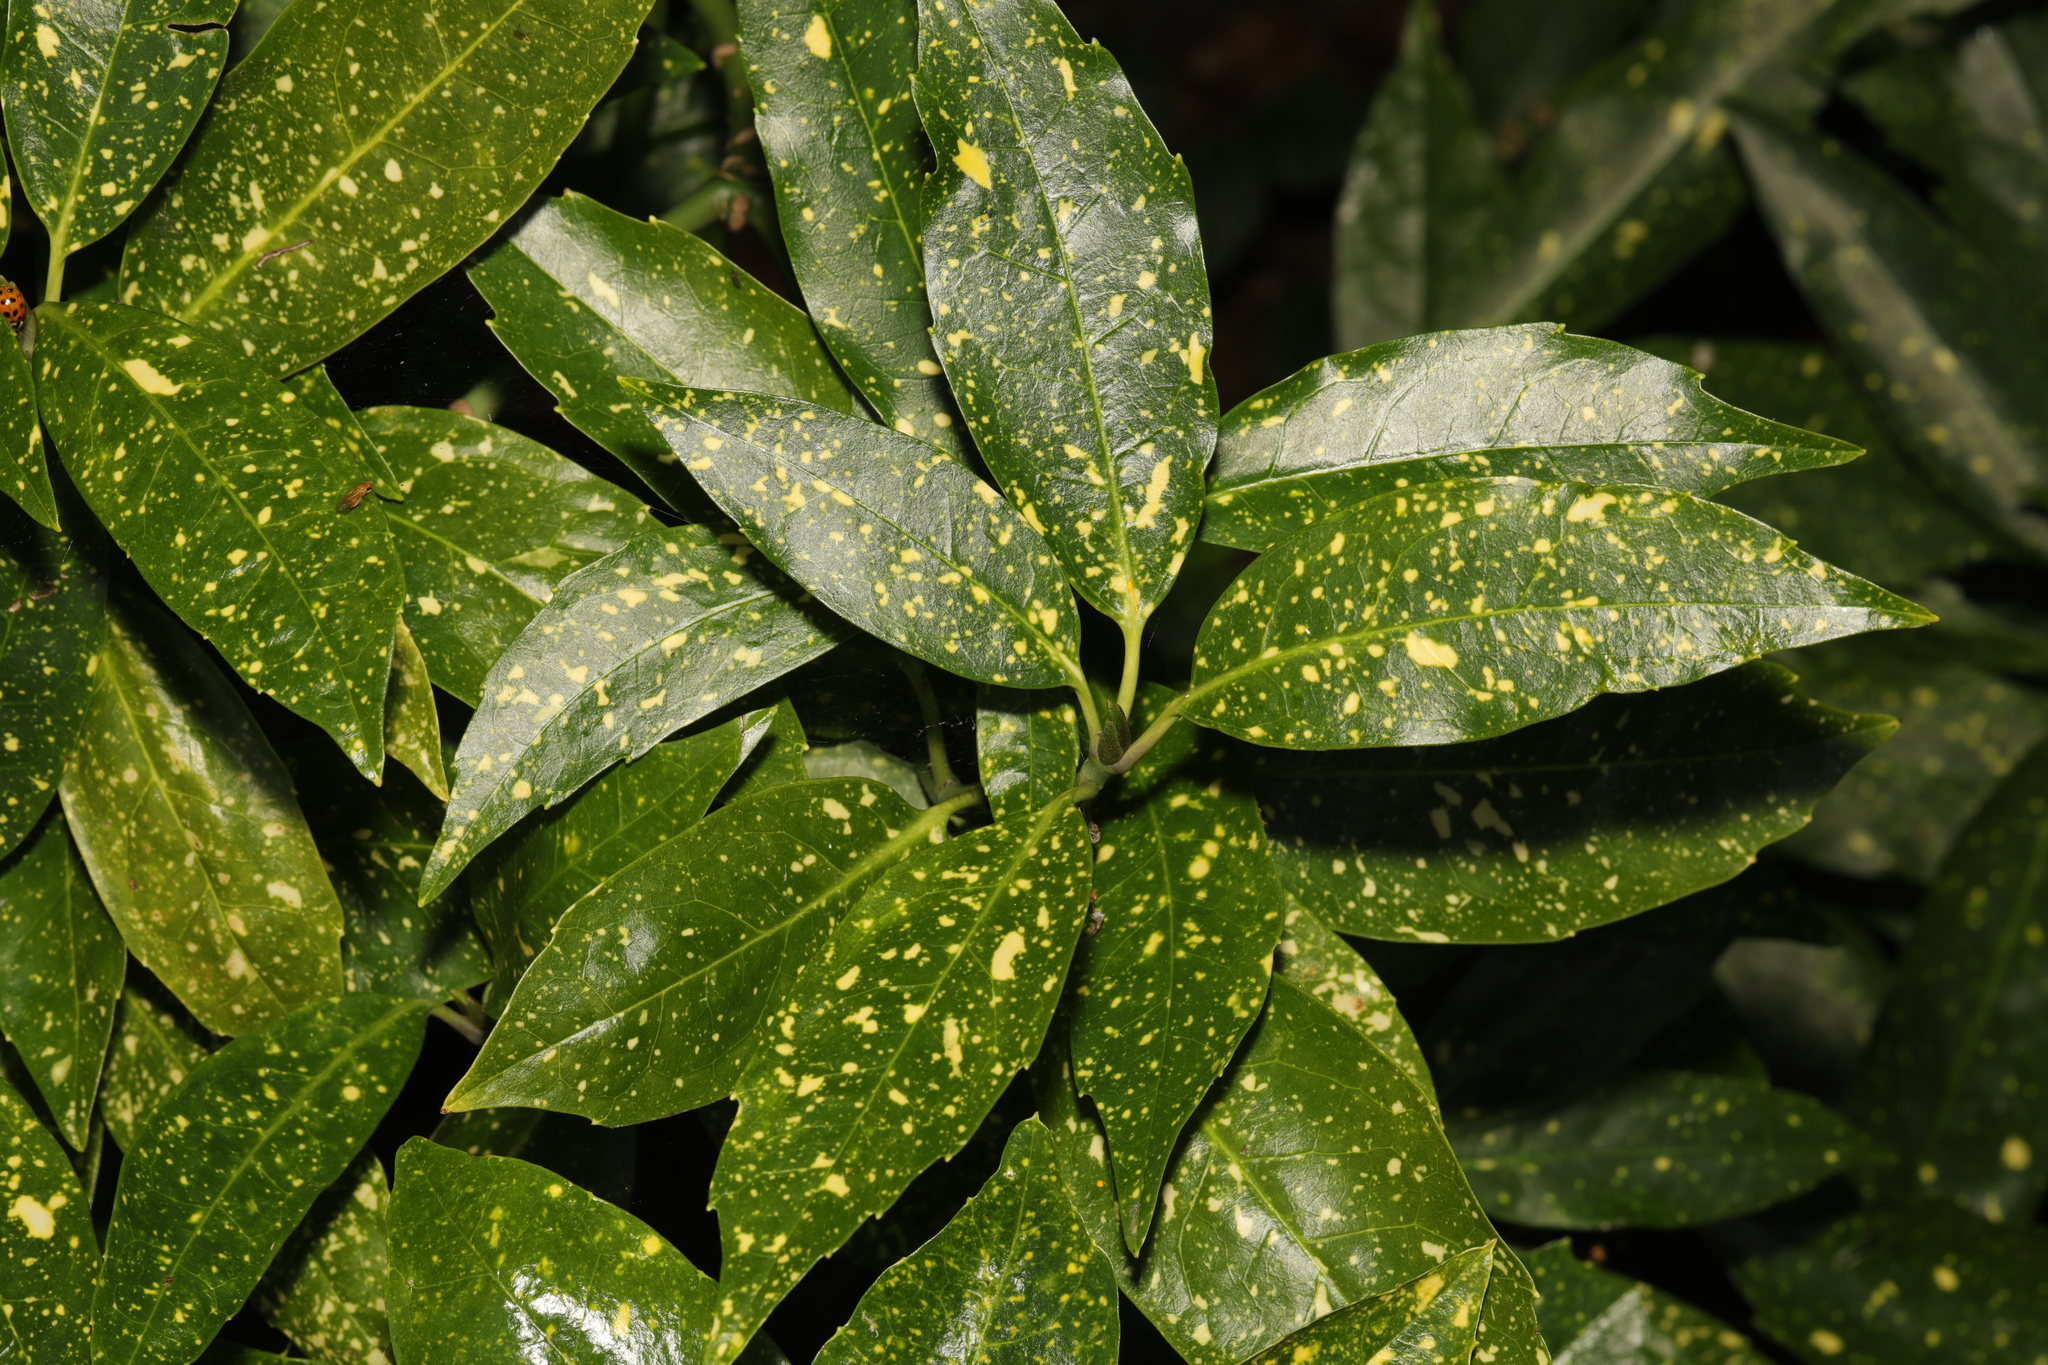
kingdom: Plantae
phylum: Tracheophyta
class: Magnoliopsida
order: Garryales
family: Garryaceae
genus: Aucuba
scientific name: Aucuba japonica
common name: Spotted-laurel
